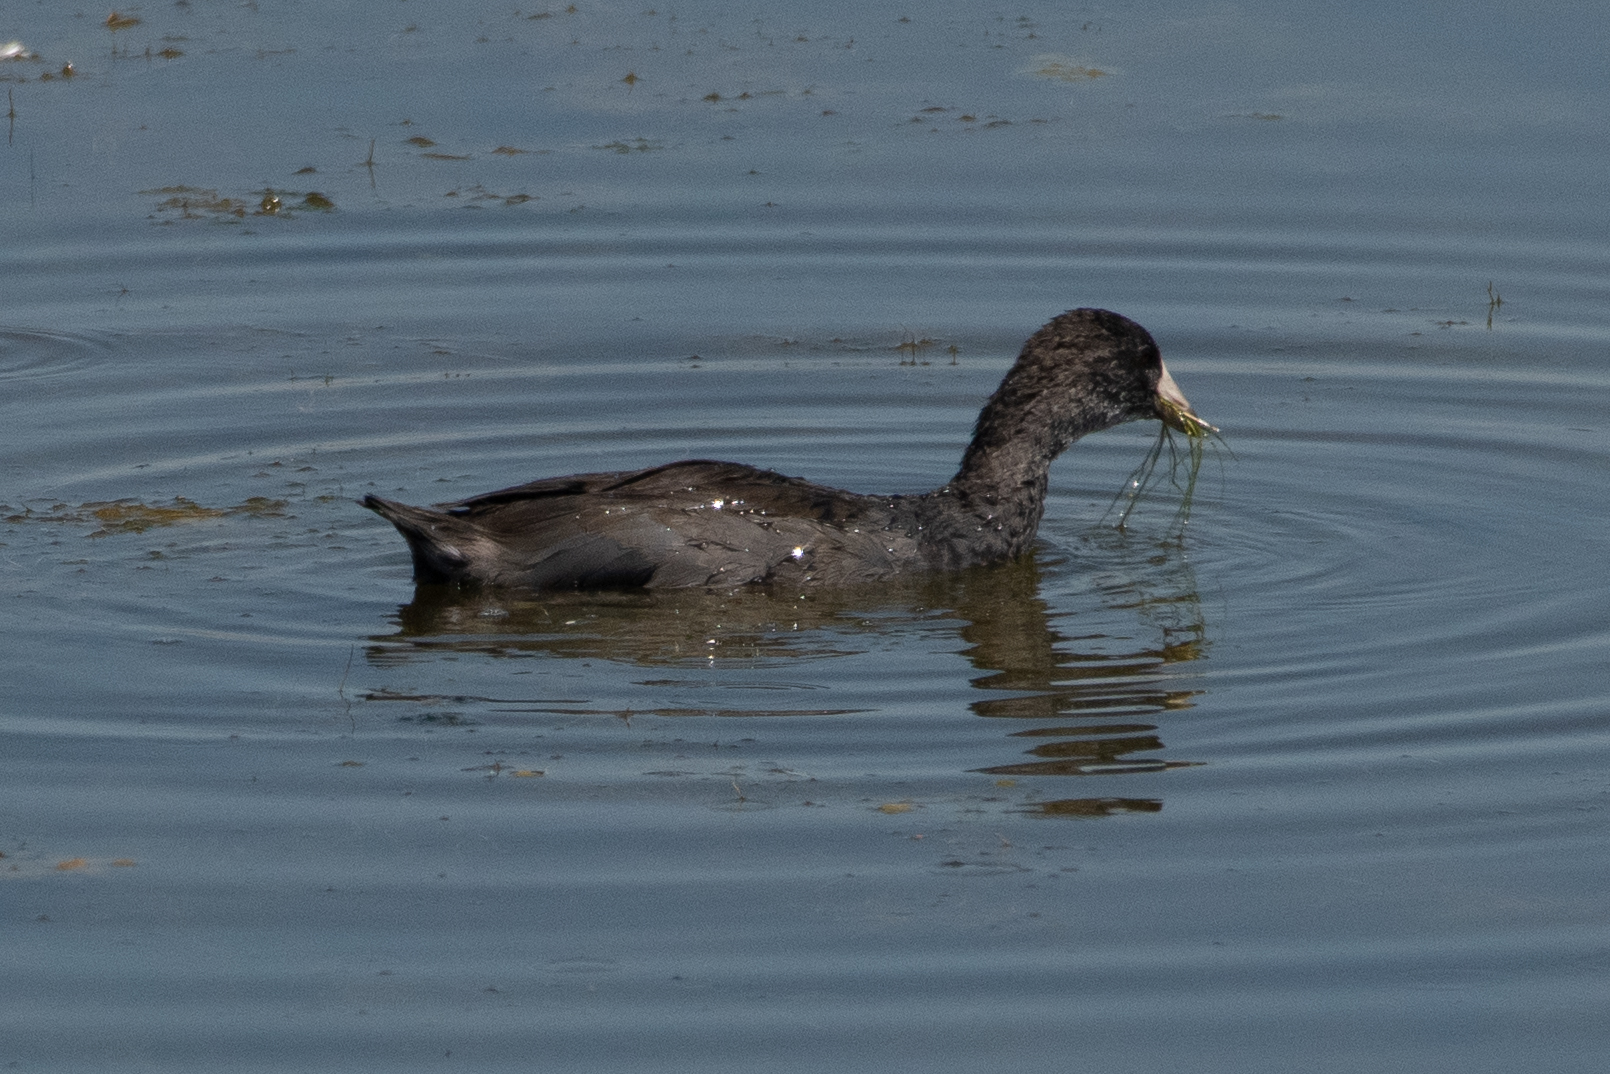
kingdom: Animalia
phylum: Chordata
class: Aves
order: Gruiformes
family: Rallidae
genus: Fulica
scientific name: Fulica americana
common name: American coot
